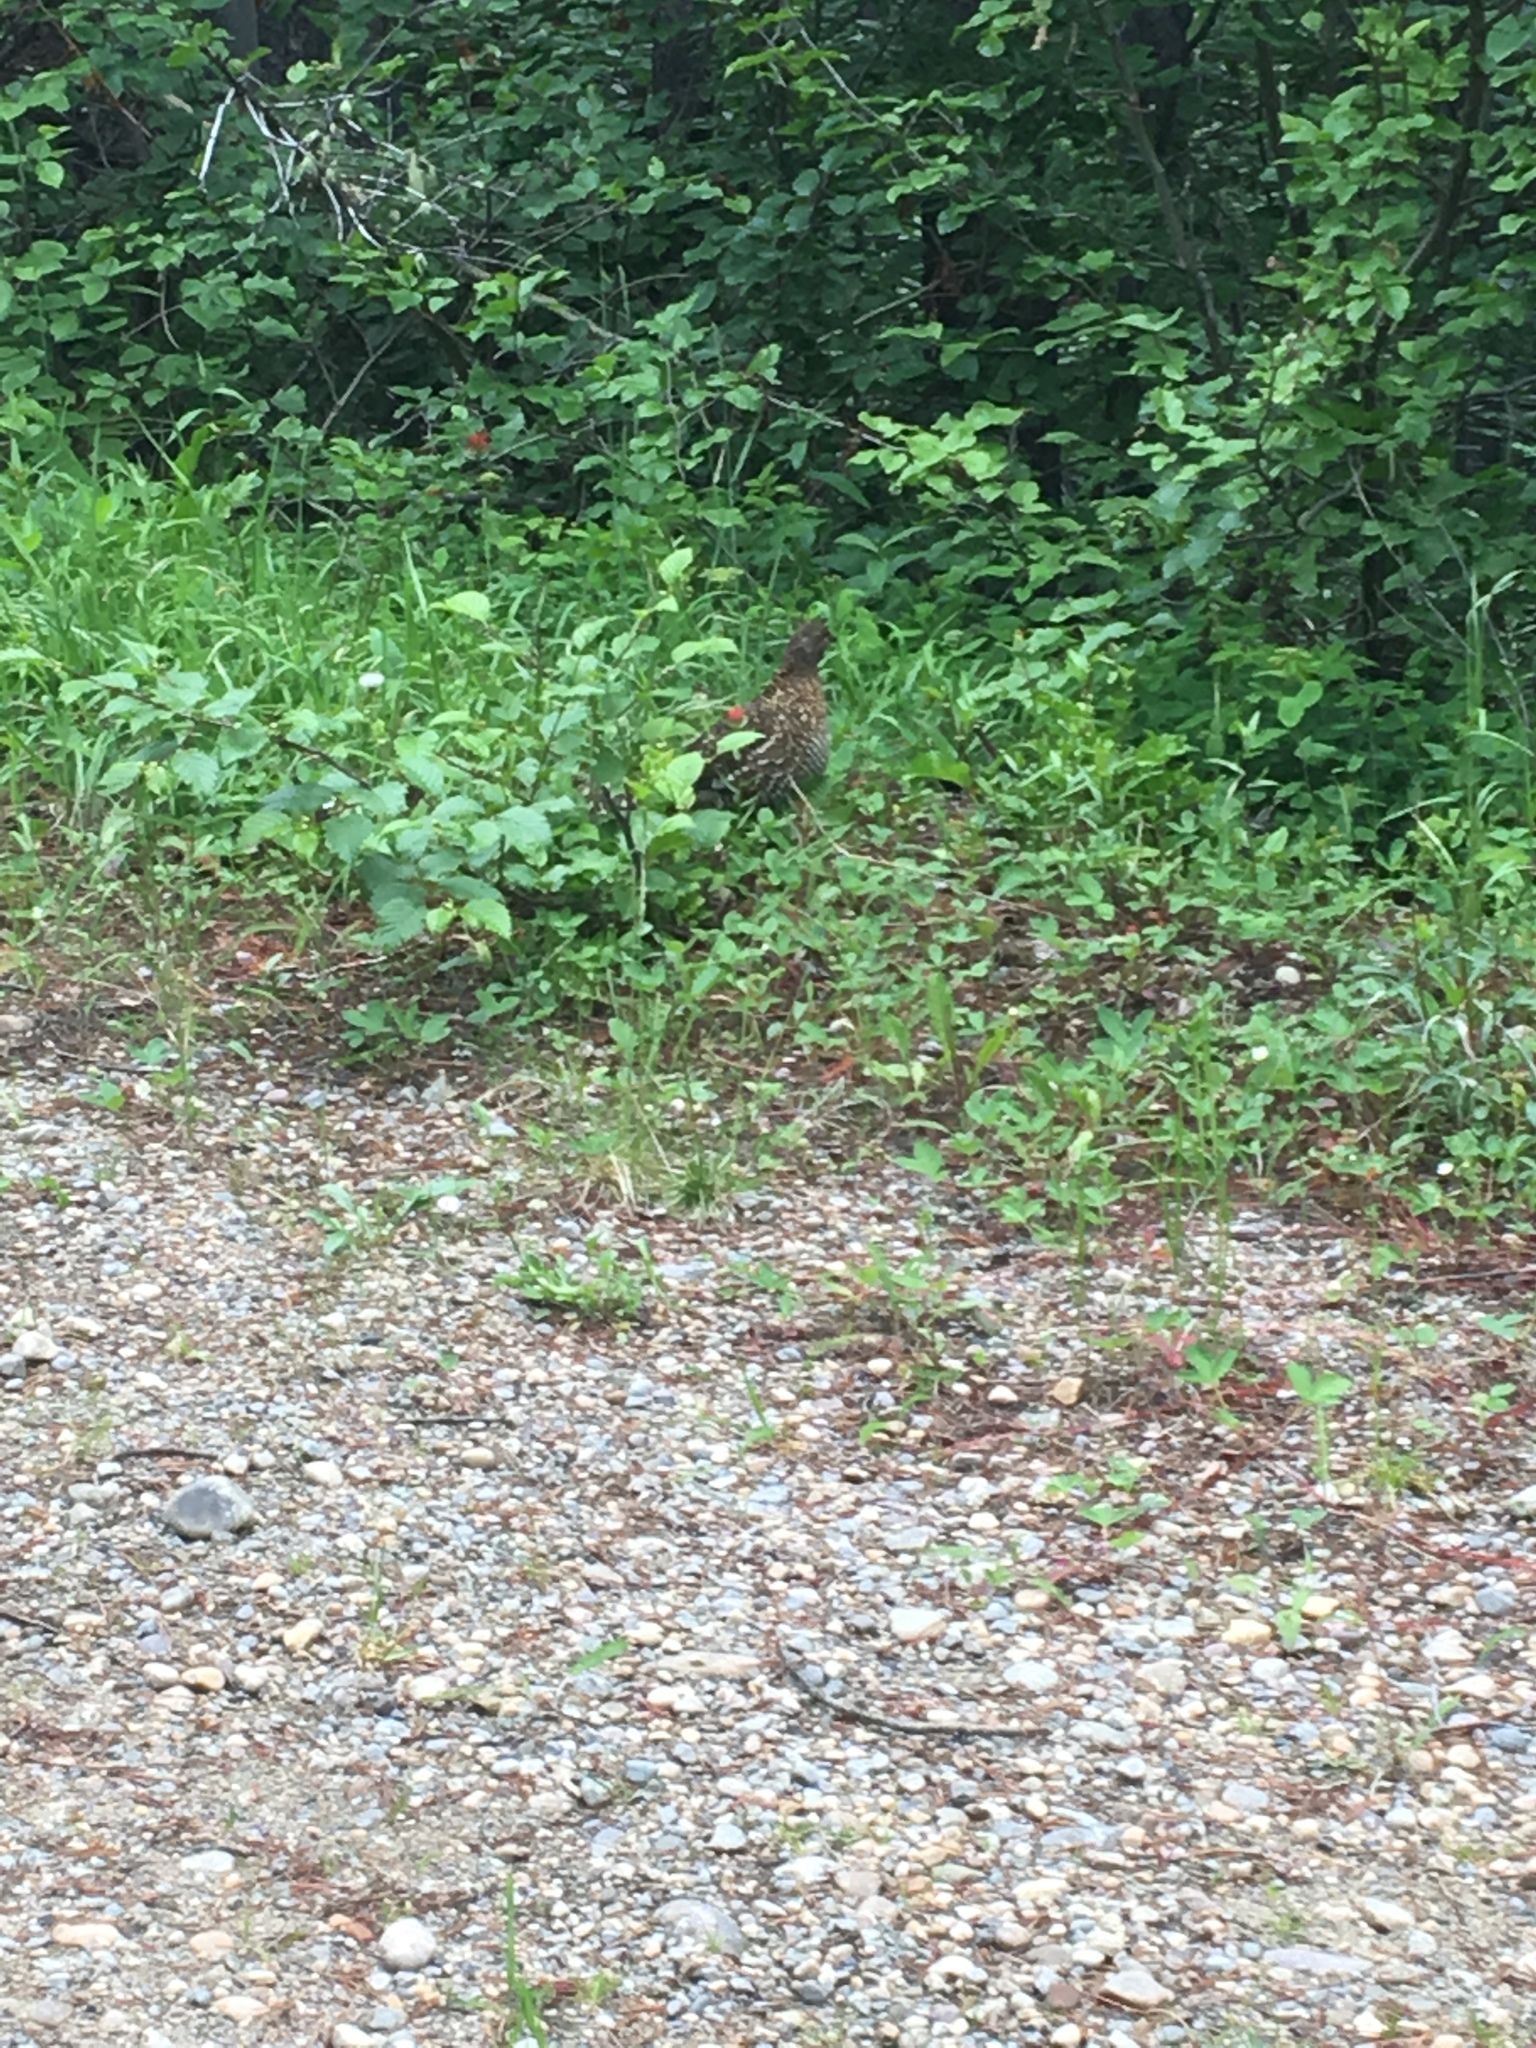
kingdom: Animalia
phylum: Chordata
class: Aves
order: Galliformes
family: Phasianidae
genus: Canachites
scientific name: Canachites canadensis
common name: Spruce grouse
